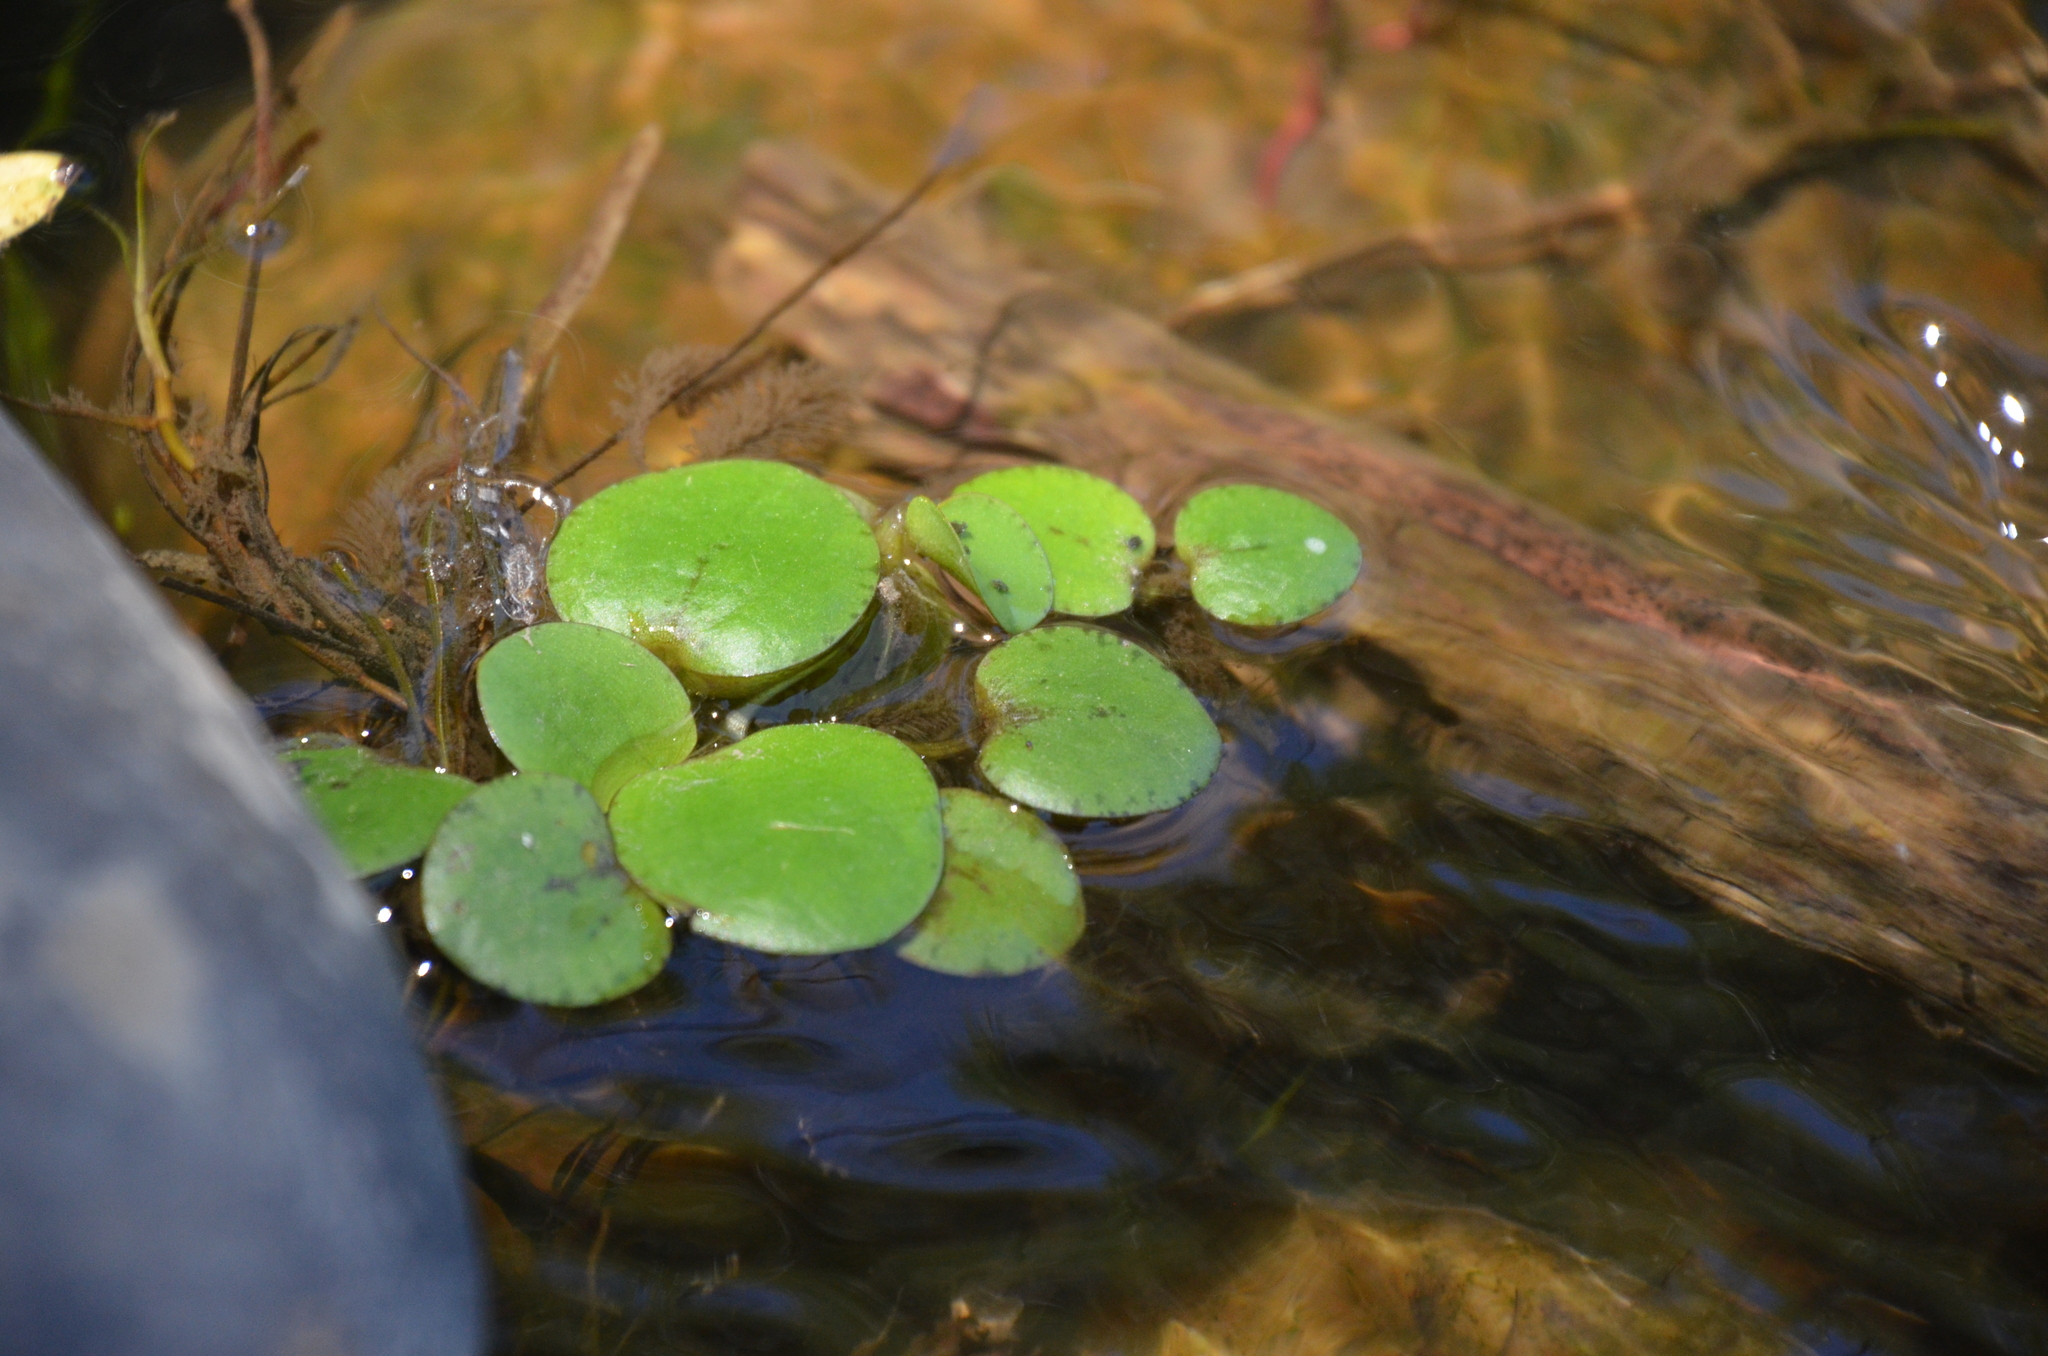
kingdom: Plantae
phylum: Tracheophyta
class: Liliopsida
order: Alismatales
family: Hydrocharitaceae
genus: Hydrocharis
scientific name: Hydrocharis laevigata
